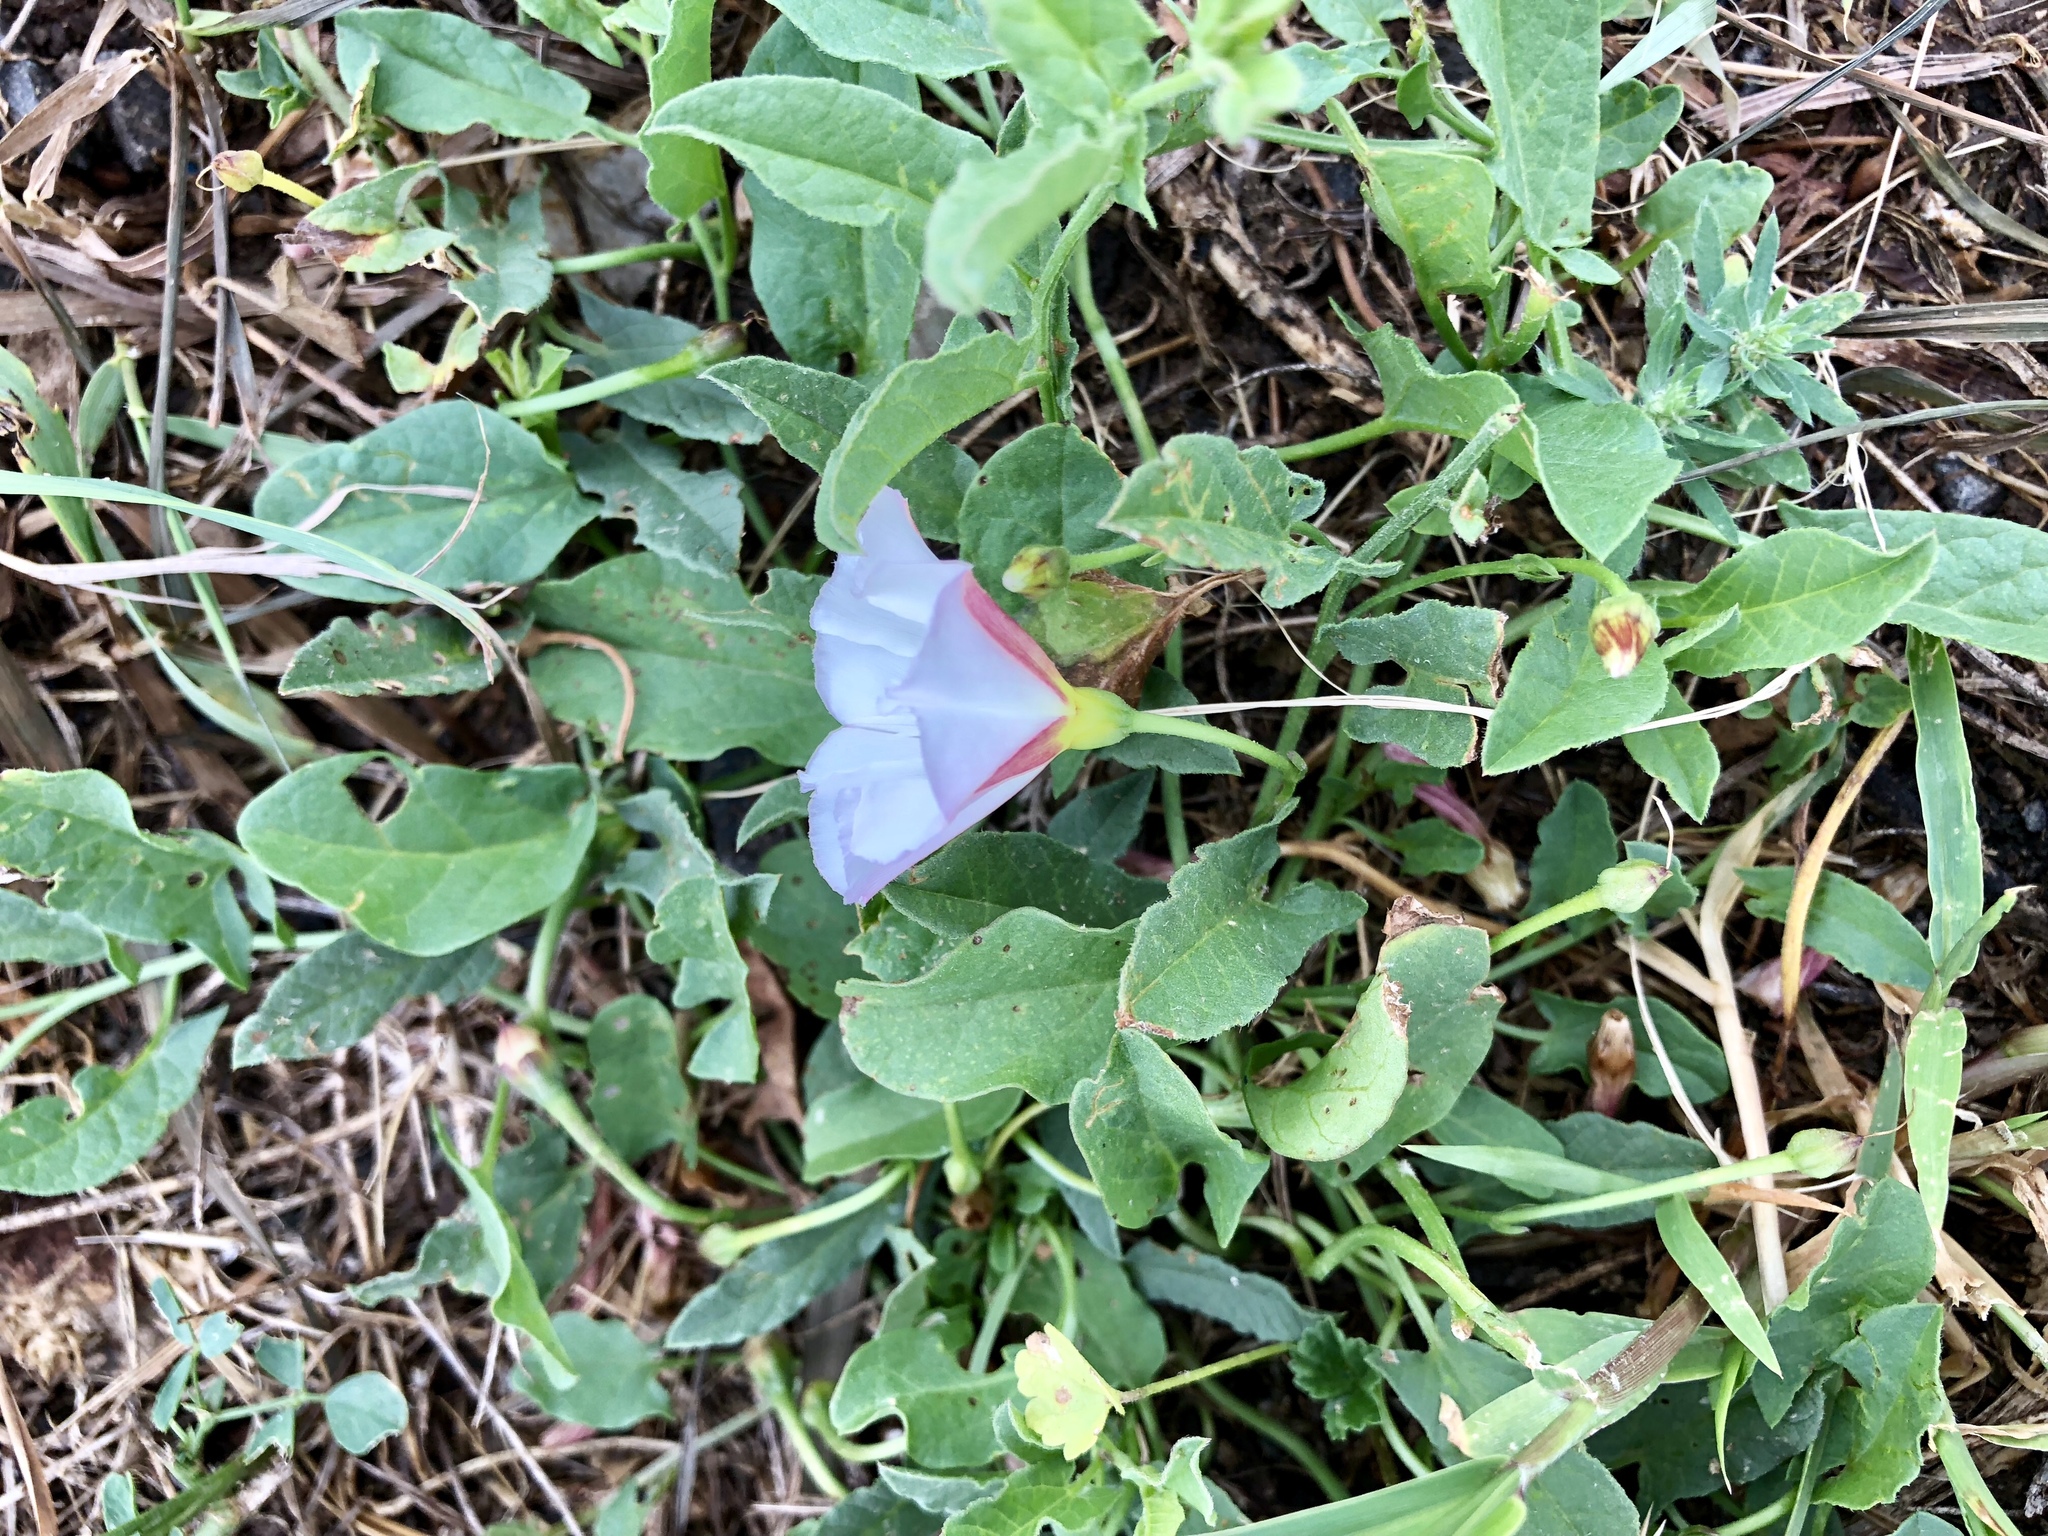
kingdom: Plantae
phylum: Tracheophyta
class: Magnoliopsida
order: Solanales
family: Convolvulaceae
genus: Convolvulus
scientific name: Convolvulus arvensis
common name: Field bindweed
